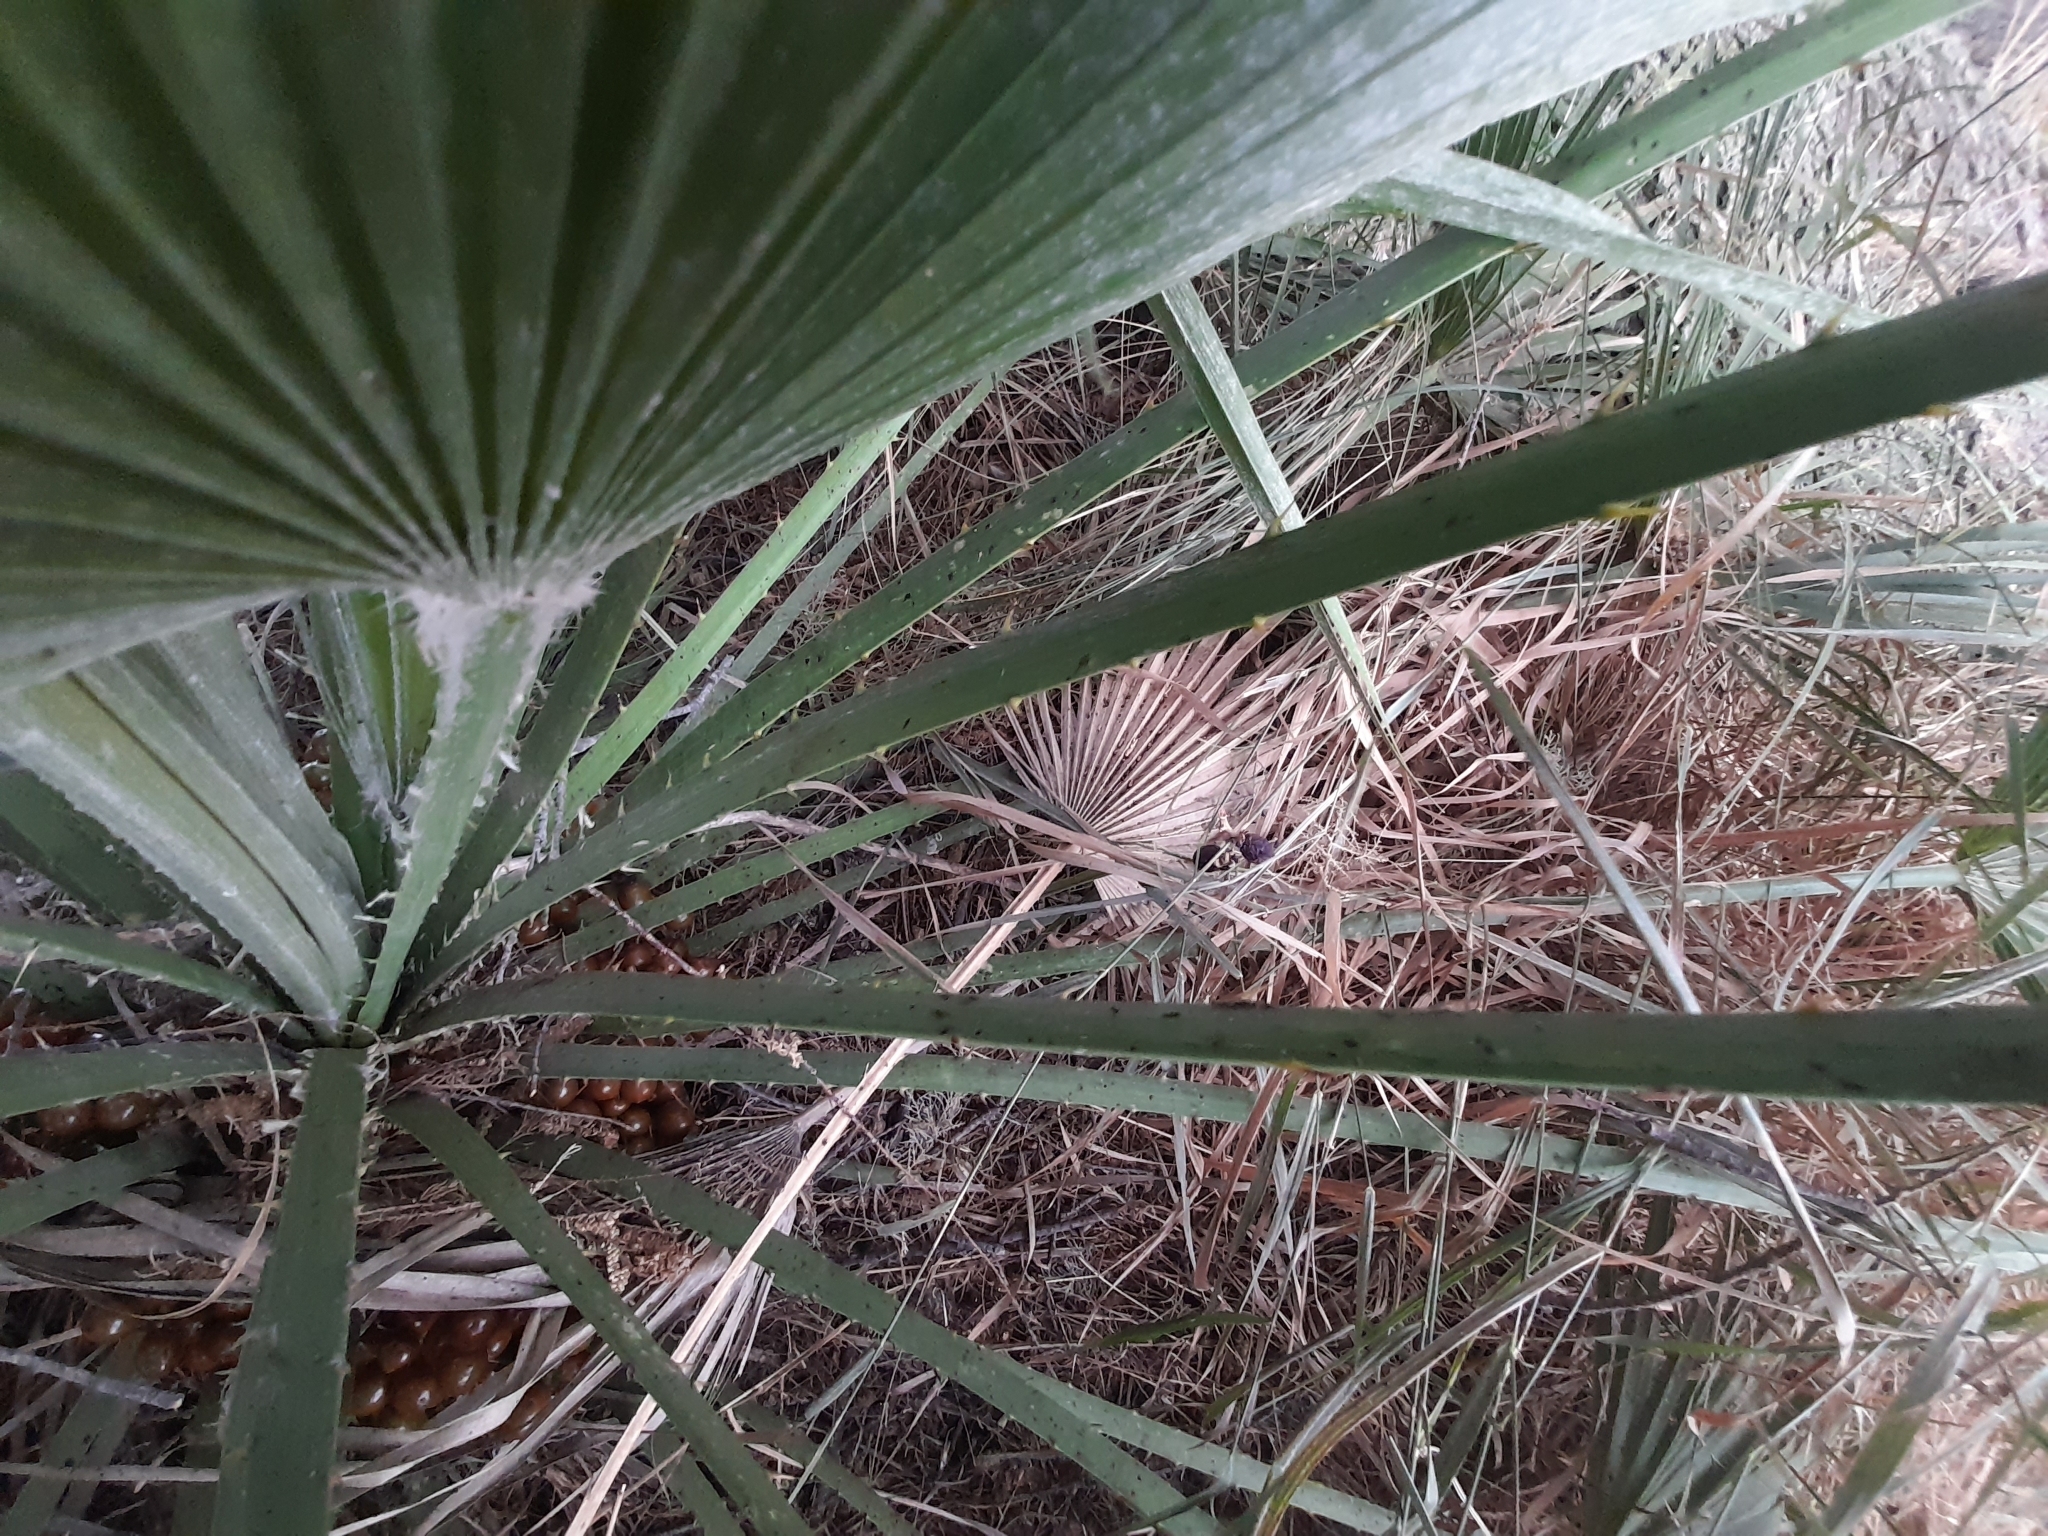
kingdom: Plantae
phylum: Tracheophyta
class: Liliopsida
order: Arecales
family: Arecaceae
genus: Chamaerops
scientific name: Chamaerops humilis
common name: Dwarf fan palm
